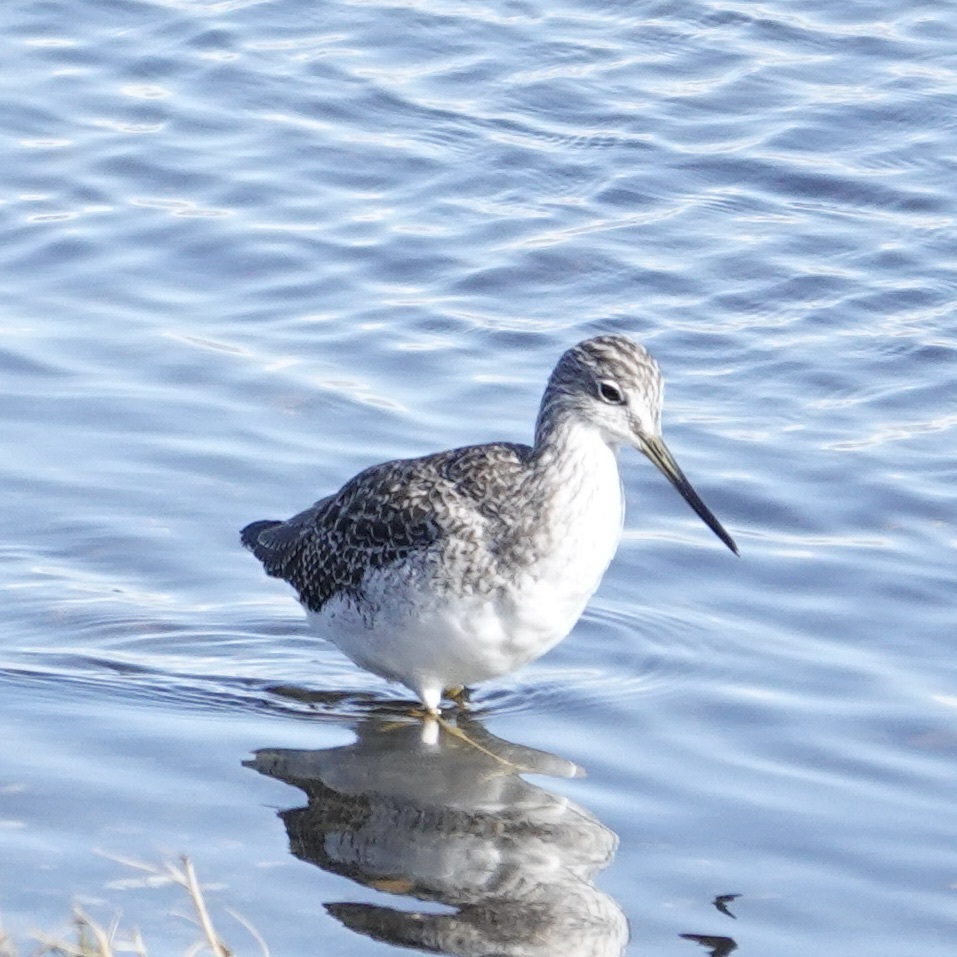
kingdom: Animalia
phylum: Chordata
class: Aves
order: Charadriiformes
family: Scolopacidae
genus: Tringa
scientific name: Tringa melanoleuca
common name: Greater yellowlegs
